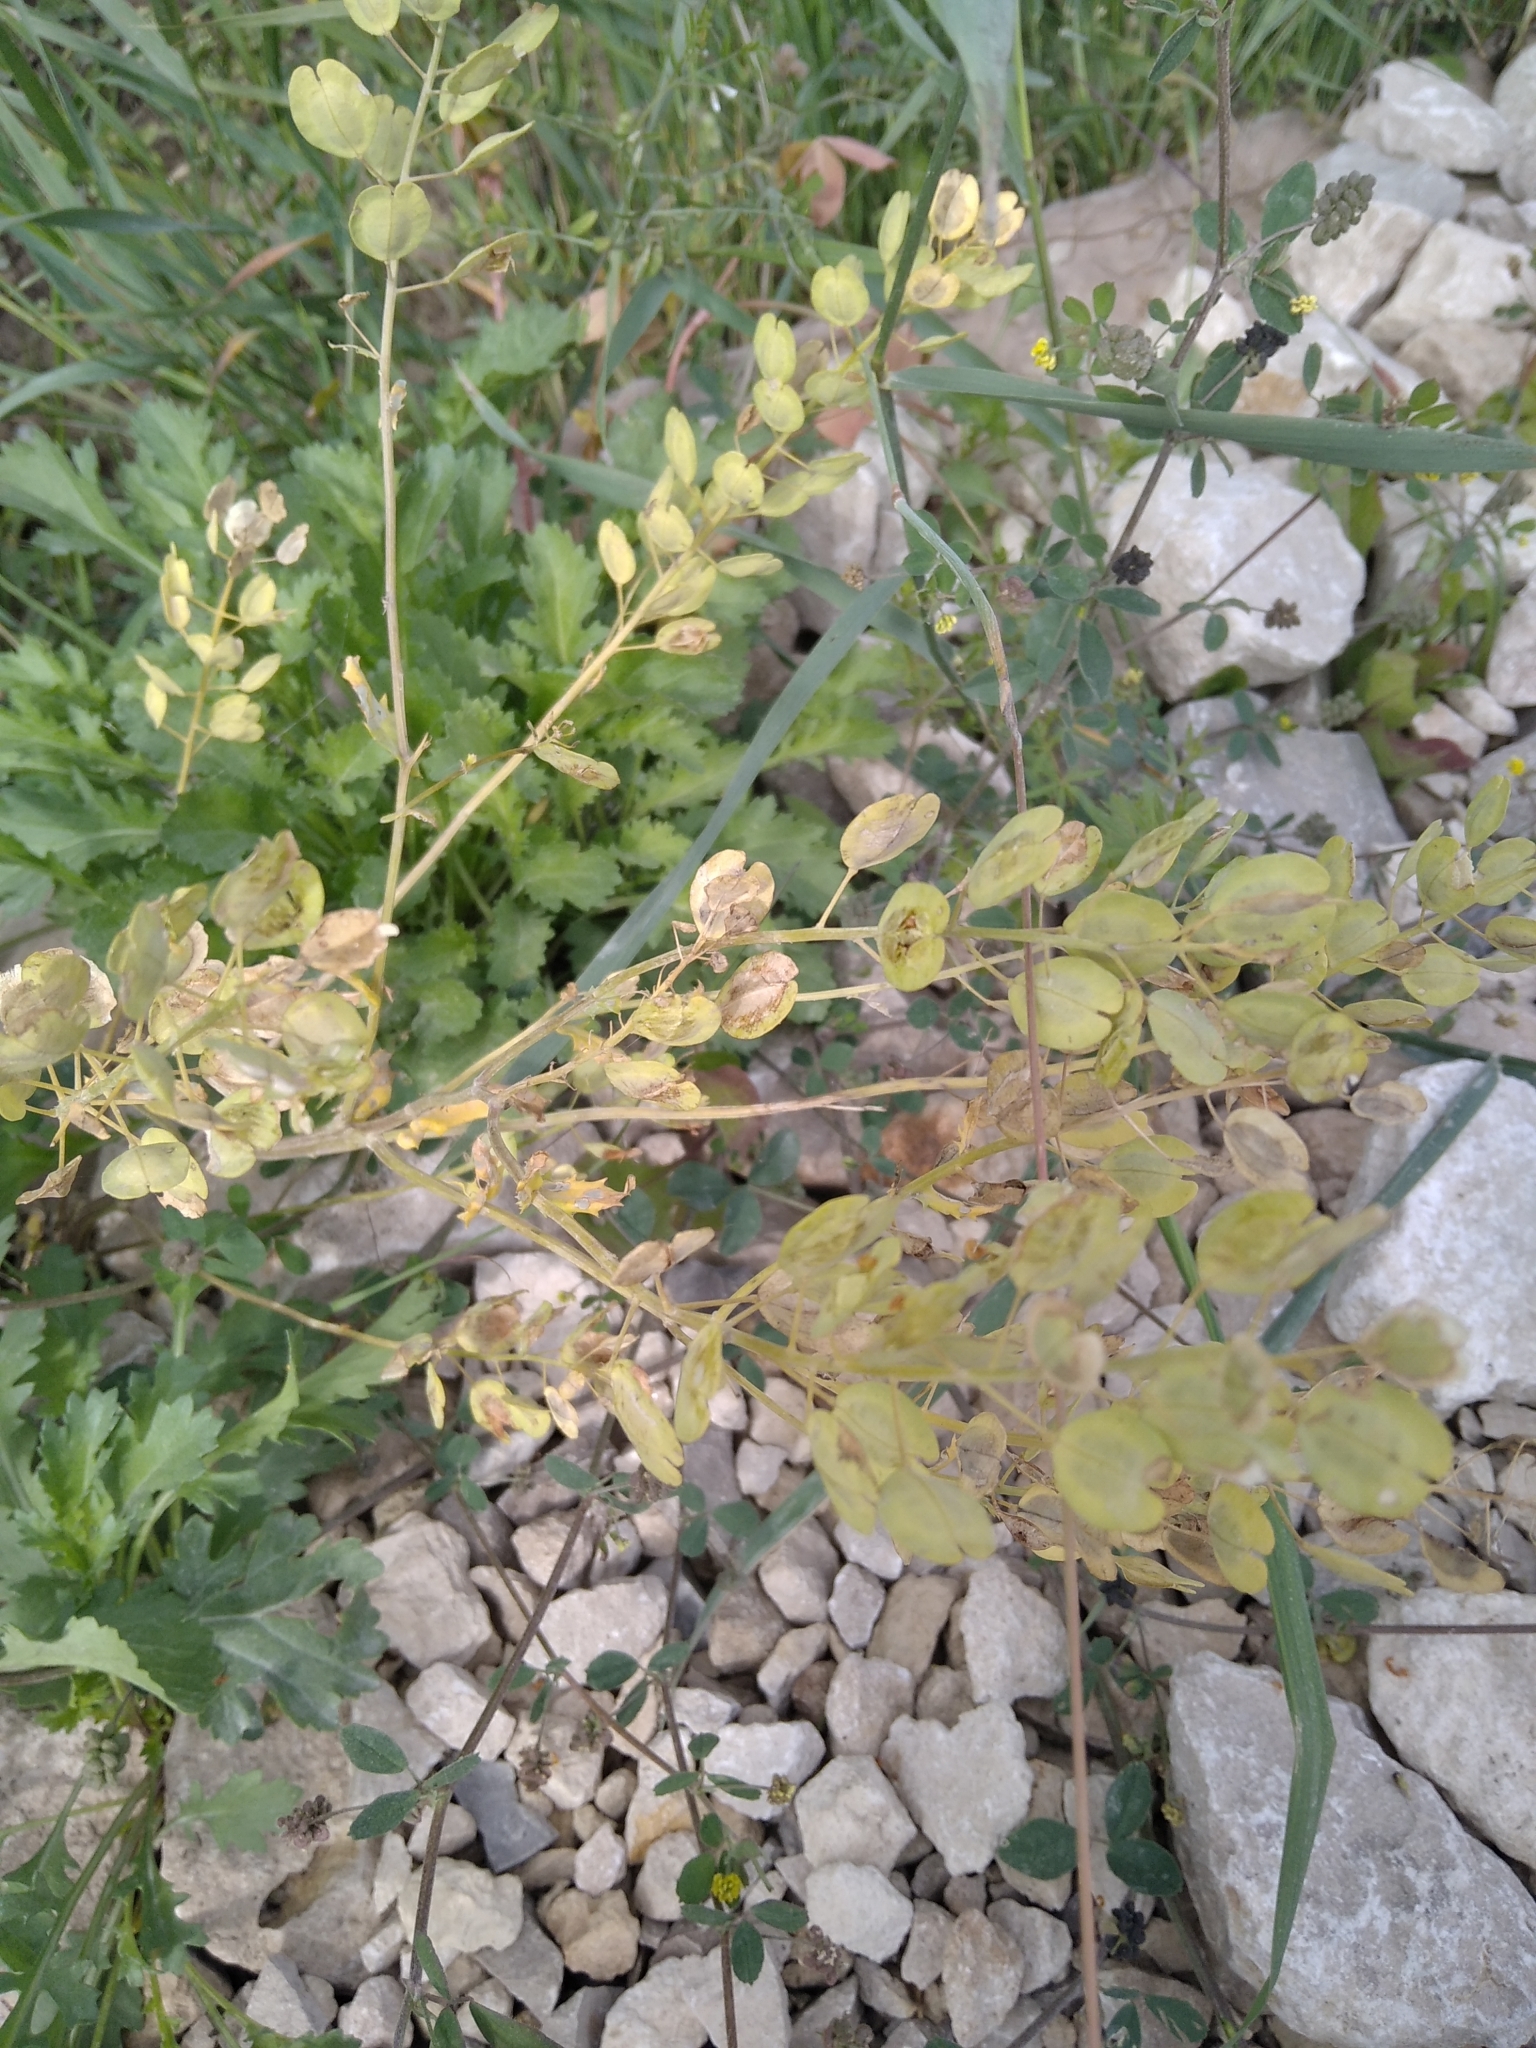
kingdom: Plantae
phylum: Tracheophyta
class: Magnoliopsida
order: Brassicales
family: Brassicaceae
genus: Thlaspi
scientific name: Thlaspi arvense
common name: Field pennycress
